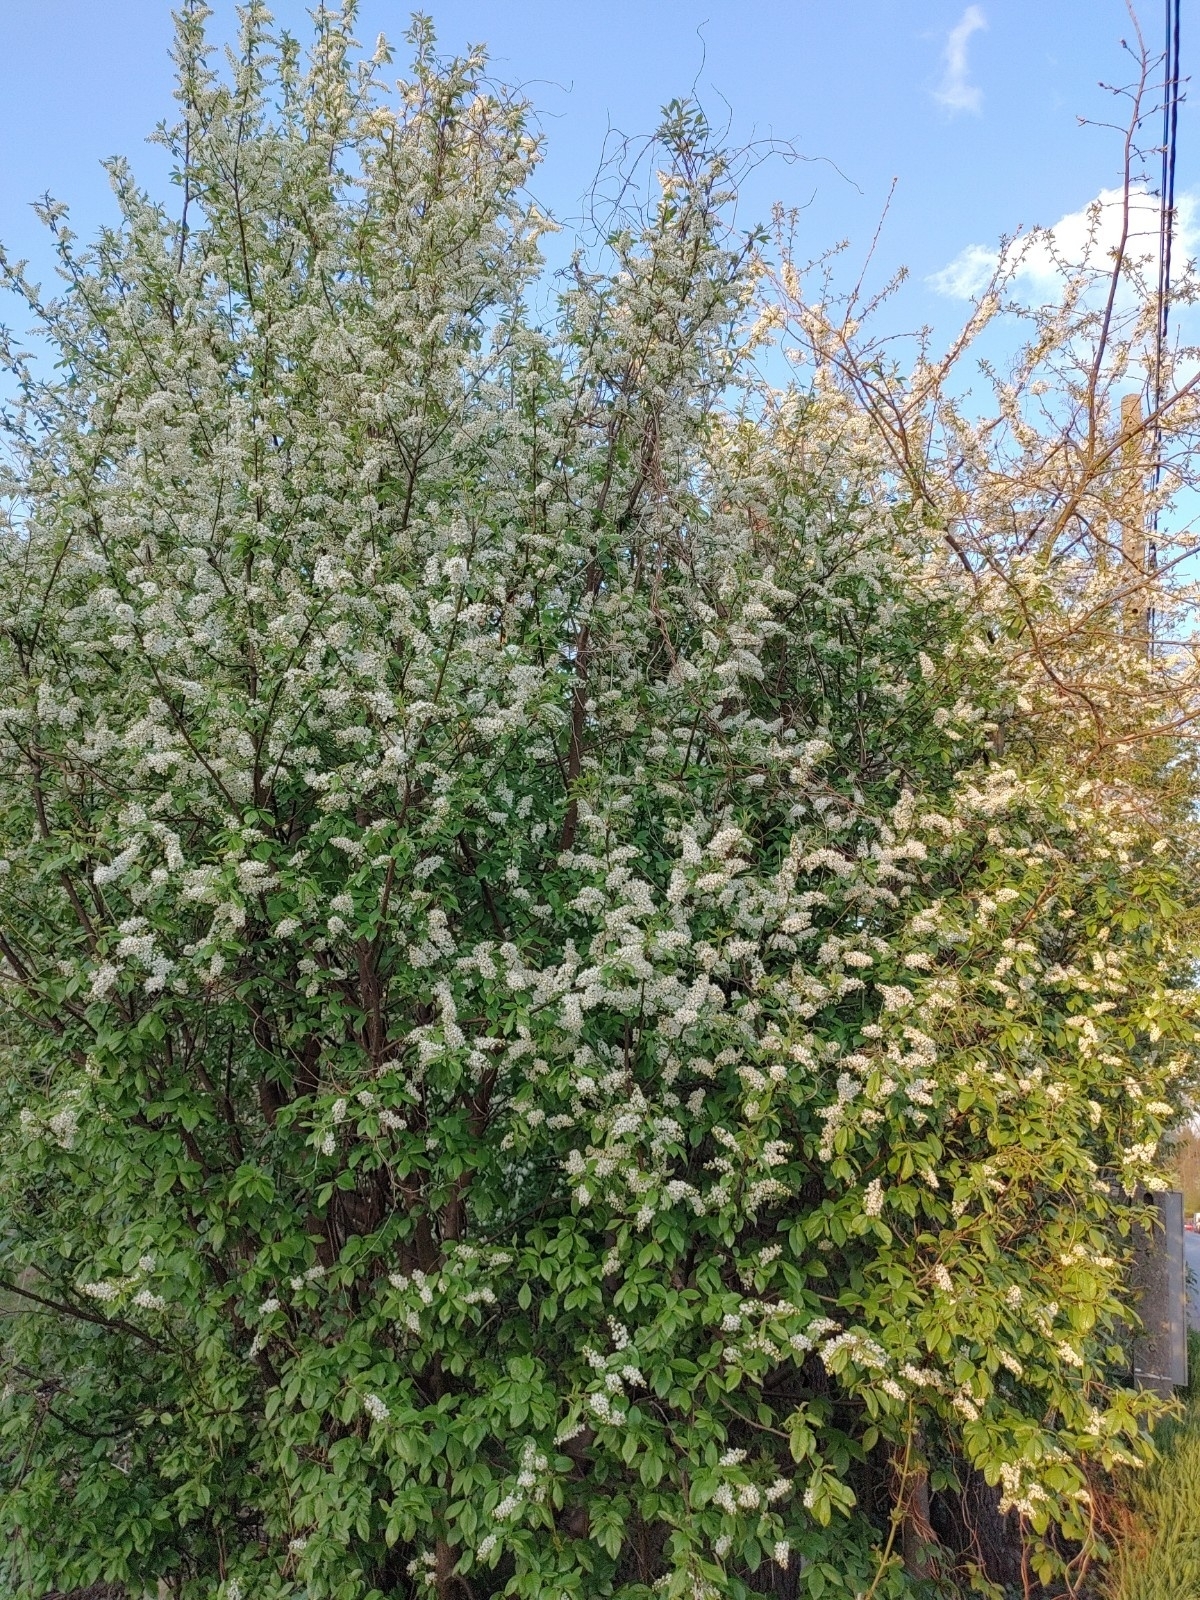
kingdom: Plantae
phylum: Tracheophyta
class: Magnoliopsida
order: Rosales
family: Rosaceae
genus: Prunus
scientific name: Prunus padus
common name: Bird cherry
